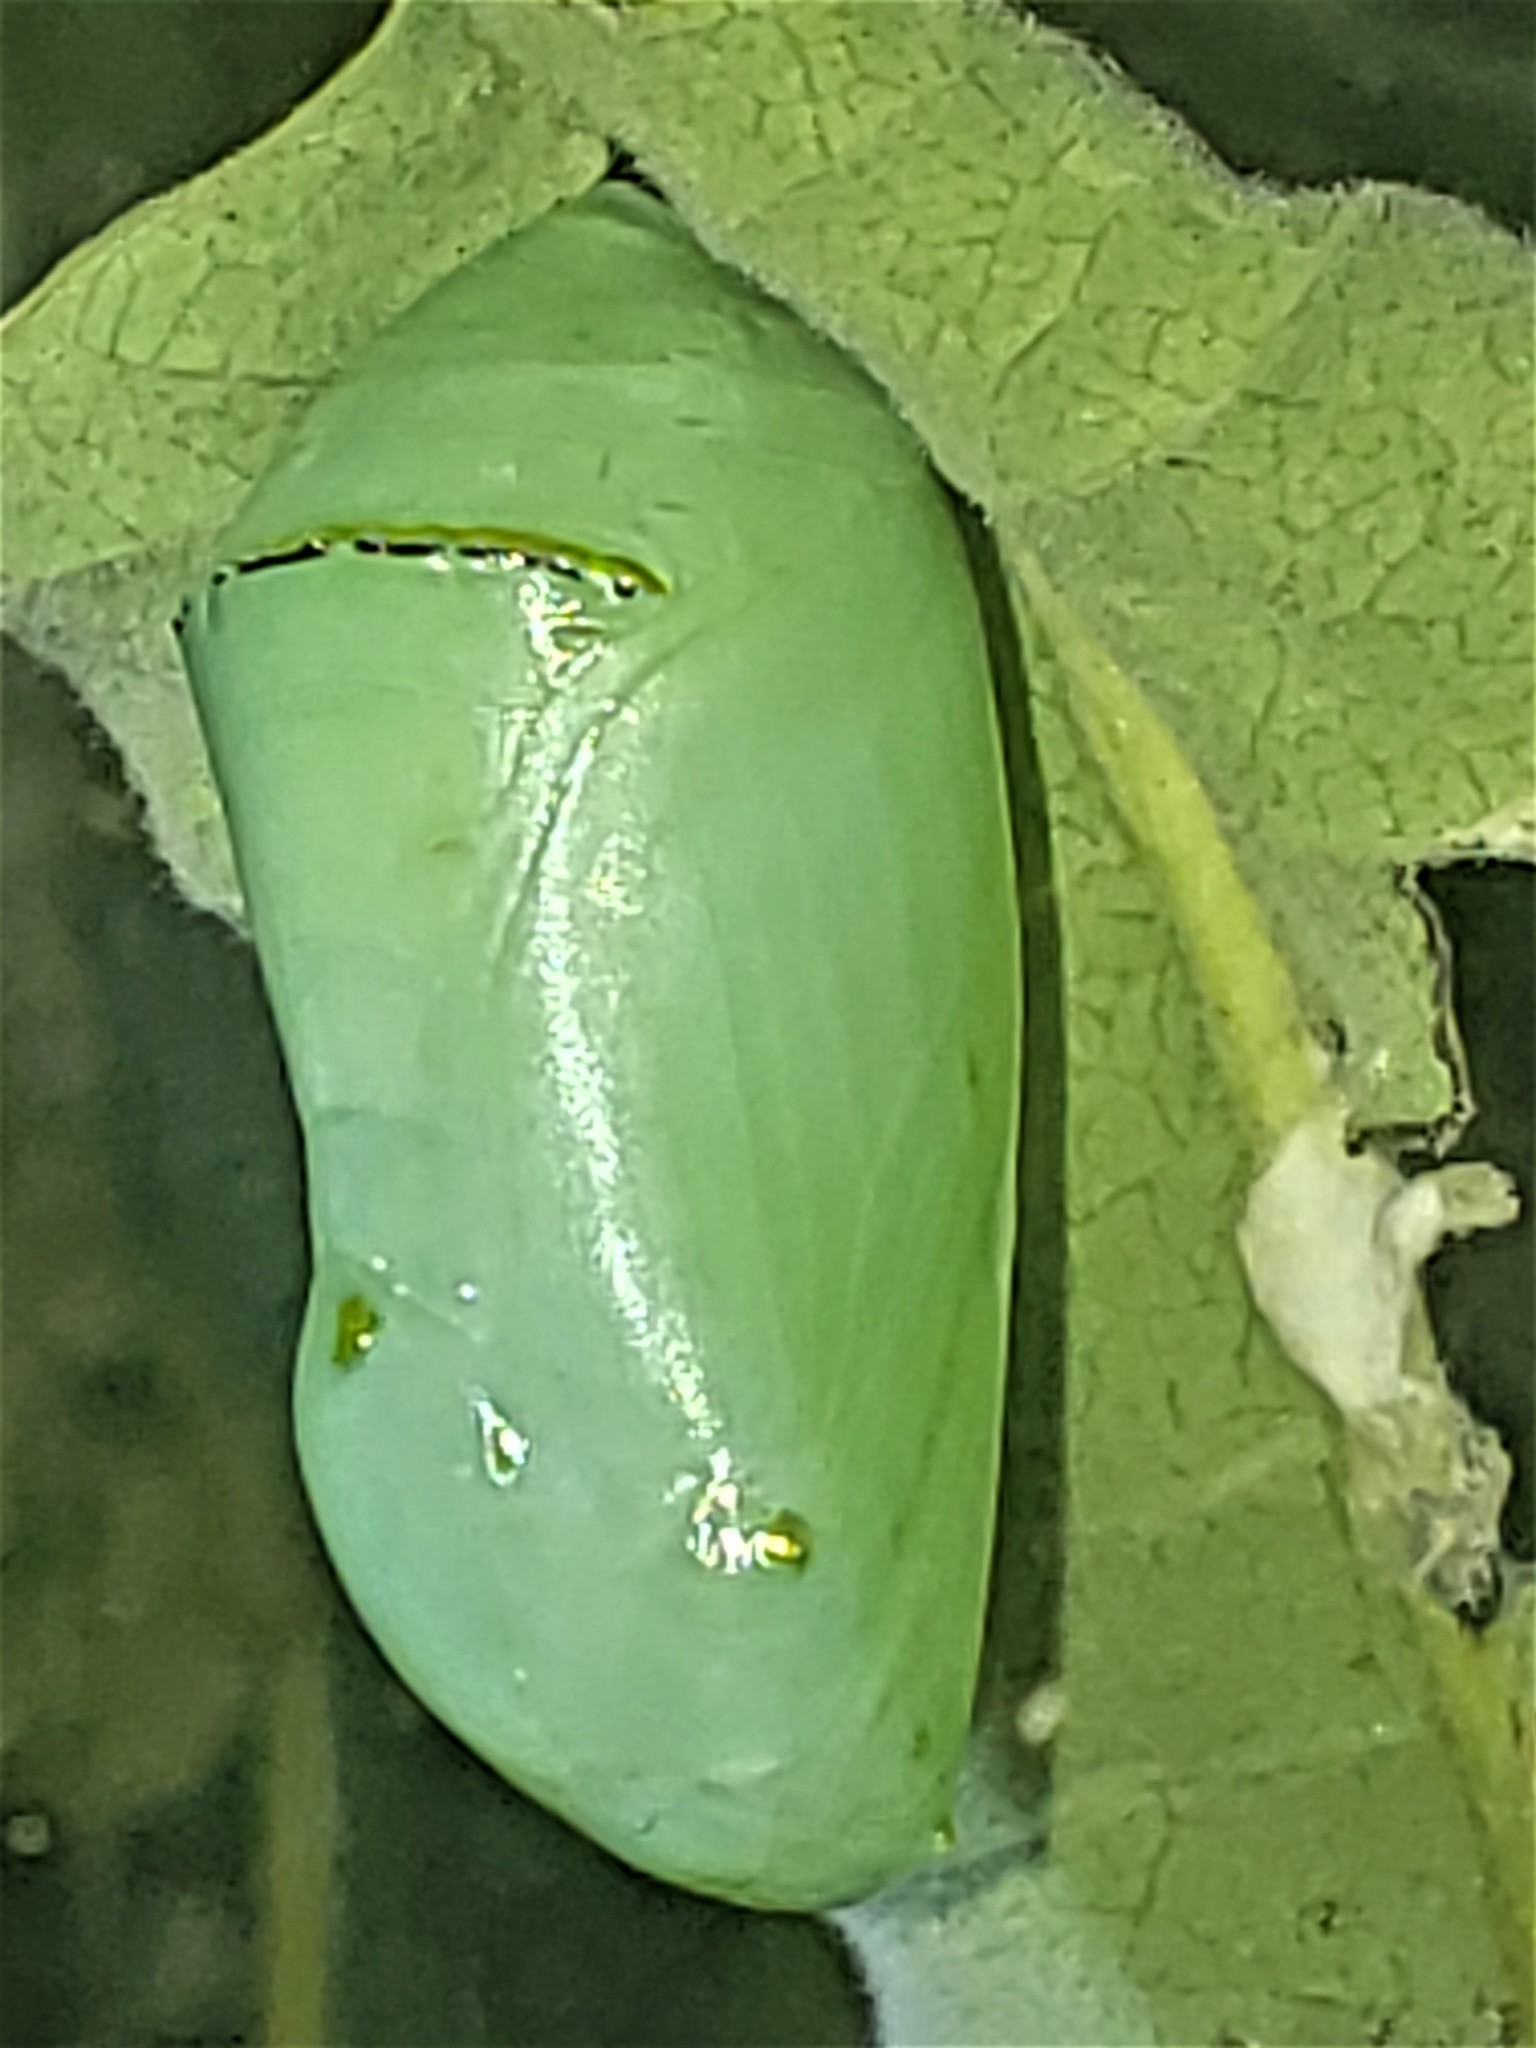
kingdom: Animalia
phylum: Arthropoda
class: Insecta
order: Lepidoptera
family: Nymphalidae
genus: Danaus
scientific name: Danaus plexippus
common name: Monarch
